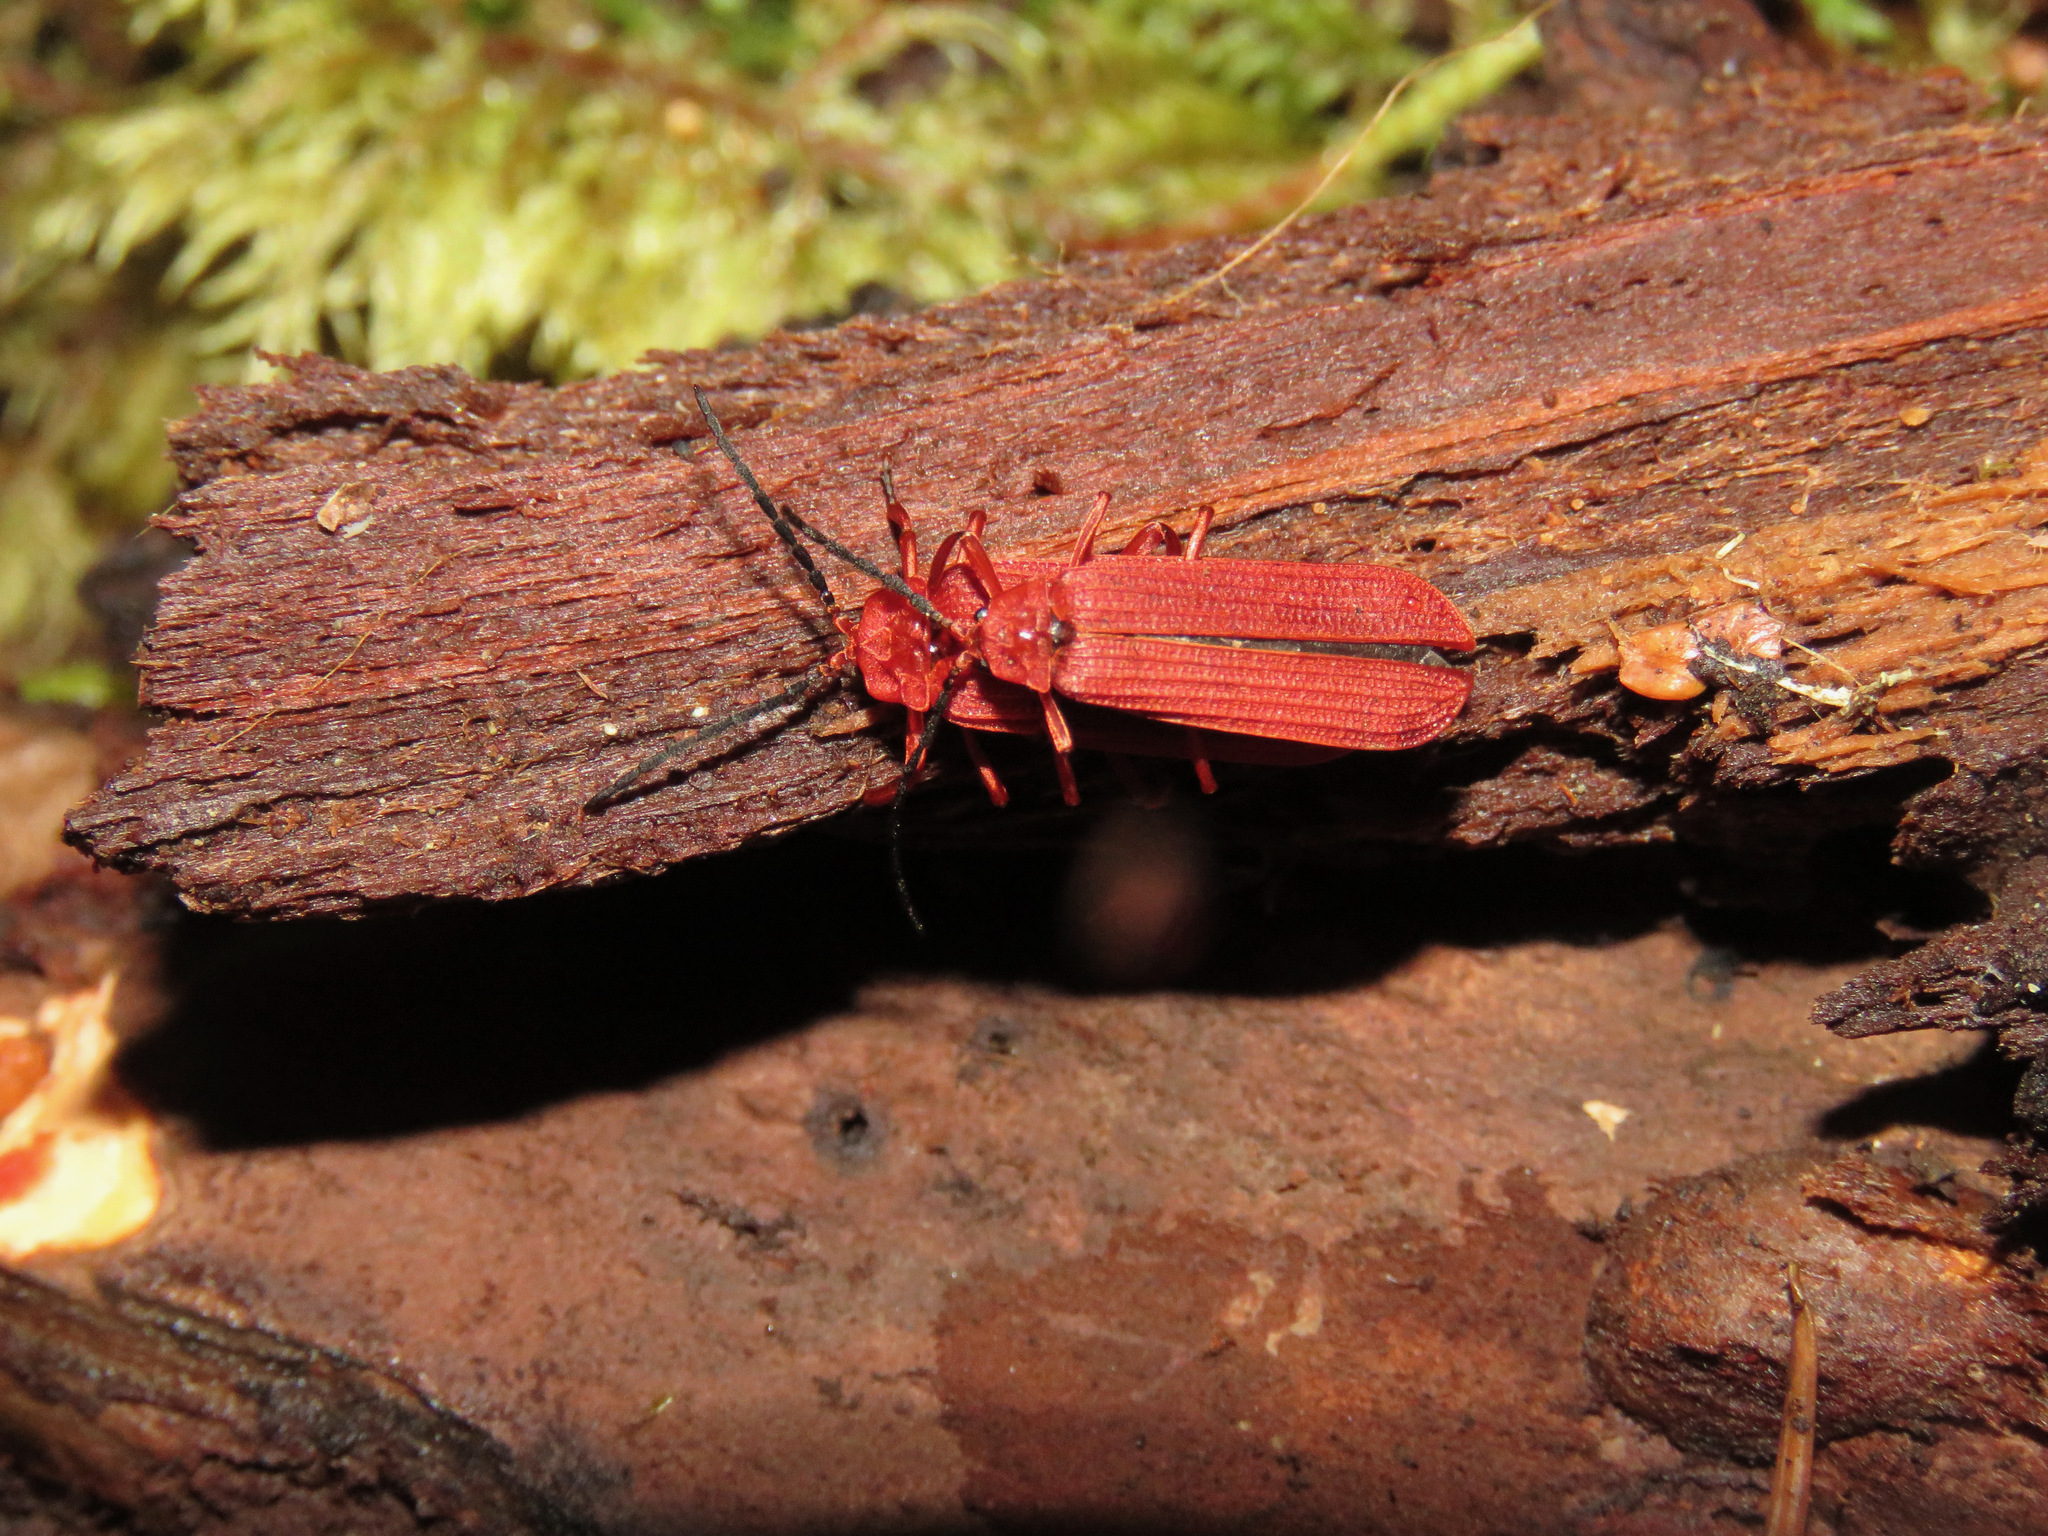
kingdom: Animalia
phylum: Arthropoda
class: Insecta
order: Coleoptera
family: Lycidae
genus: Punicealis
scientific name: Punicealis hamata
